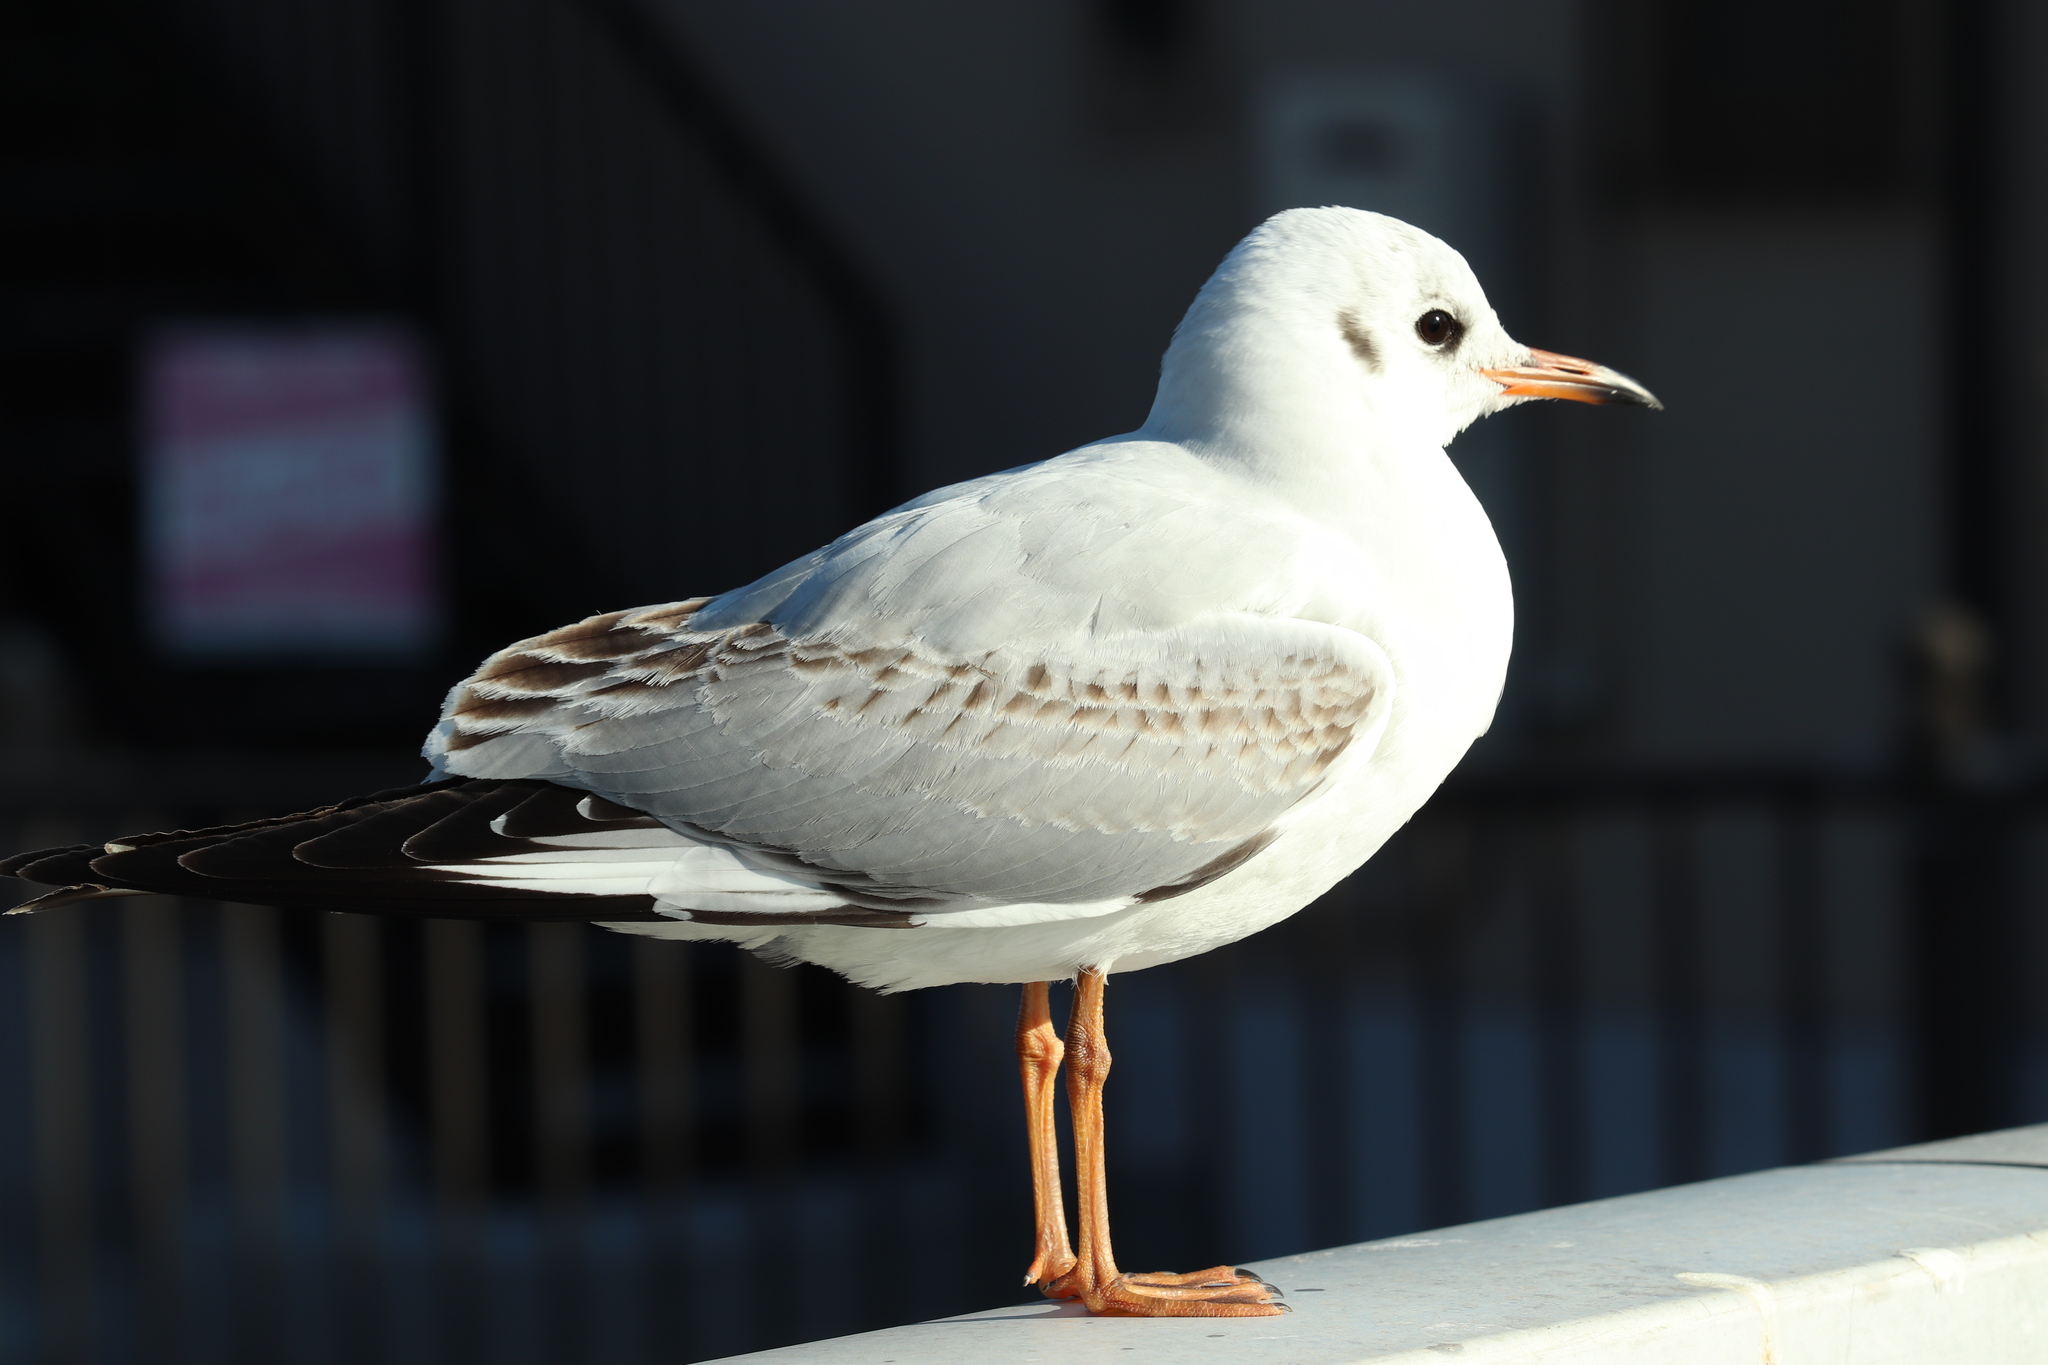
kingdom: Animalia
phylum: Chordata
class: Aves
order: Charadriiformes
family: Laridae
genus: Chroicocephalus
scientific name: Chroicocephalus ridibundus
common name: Black-headed gull
